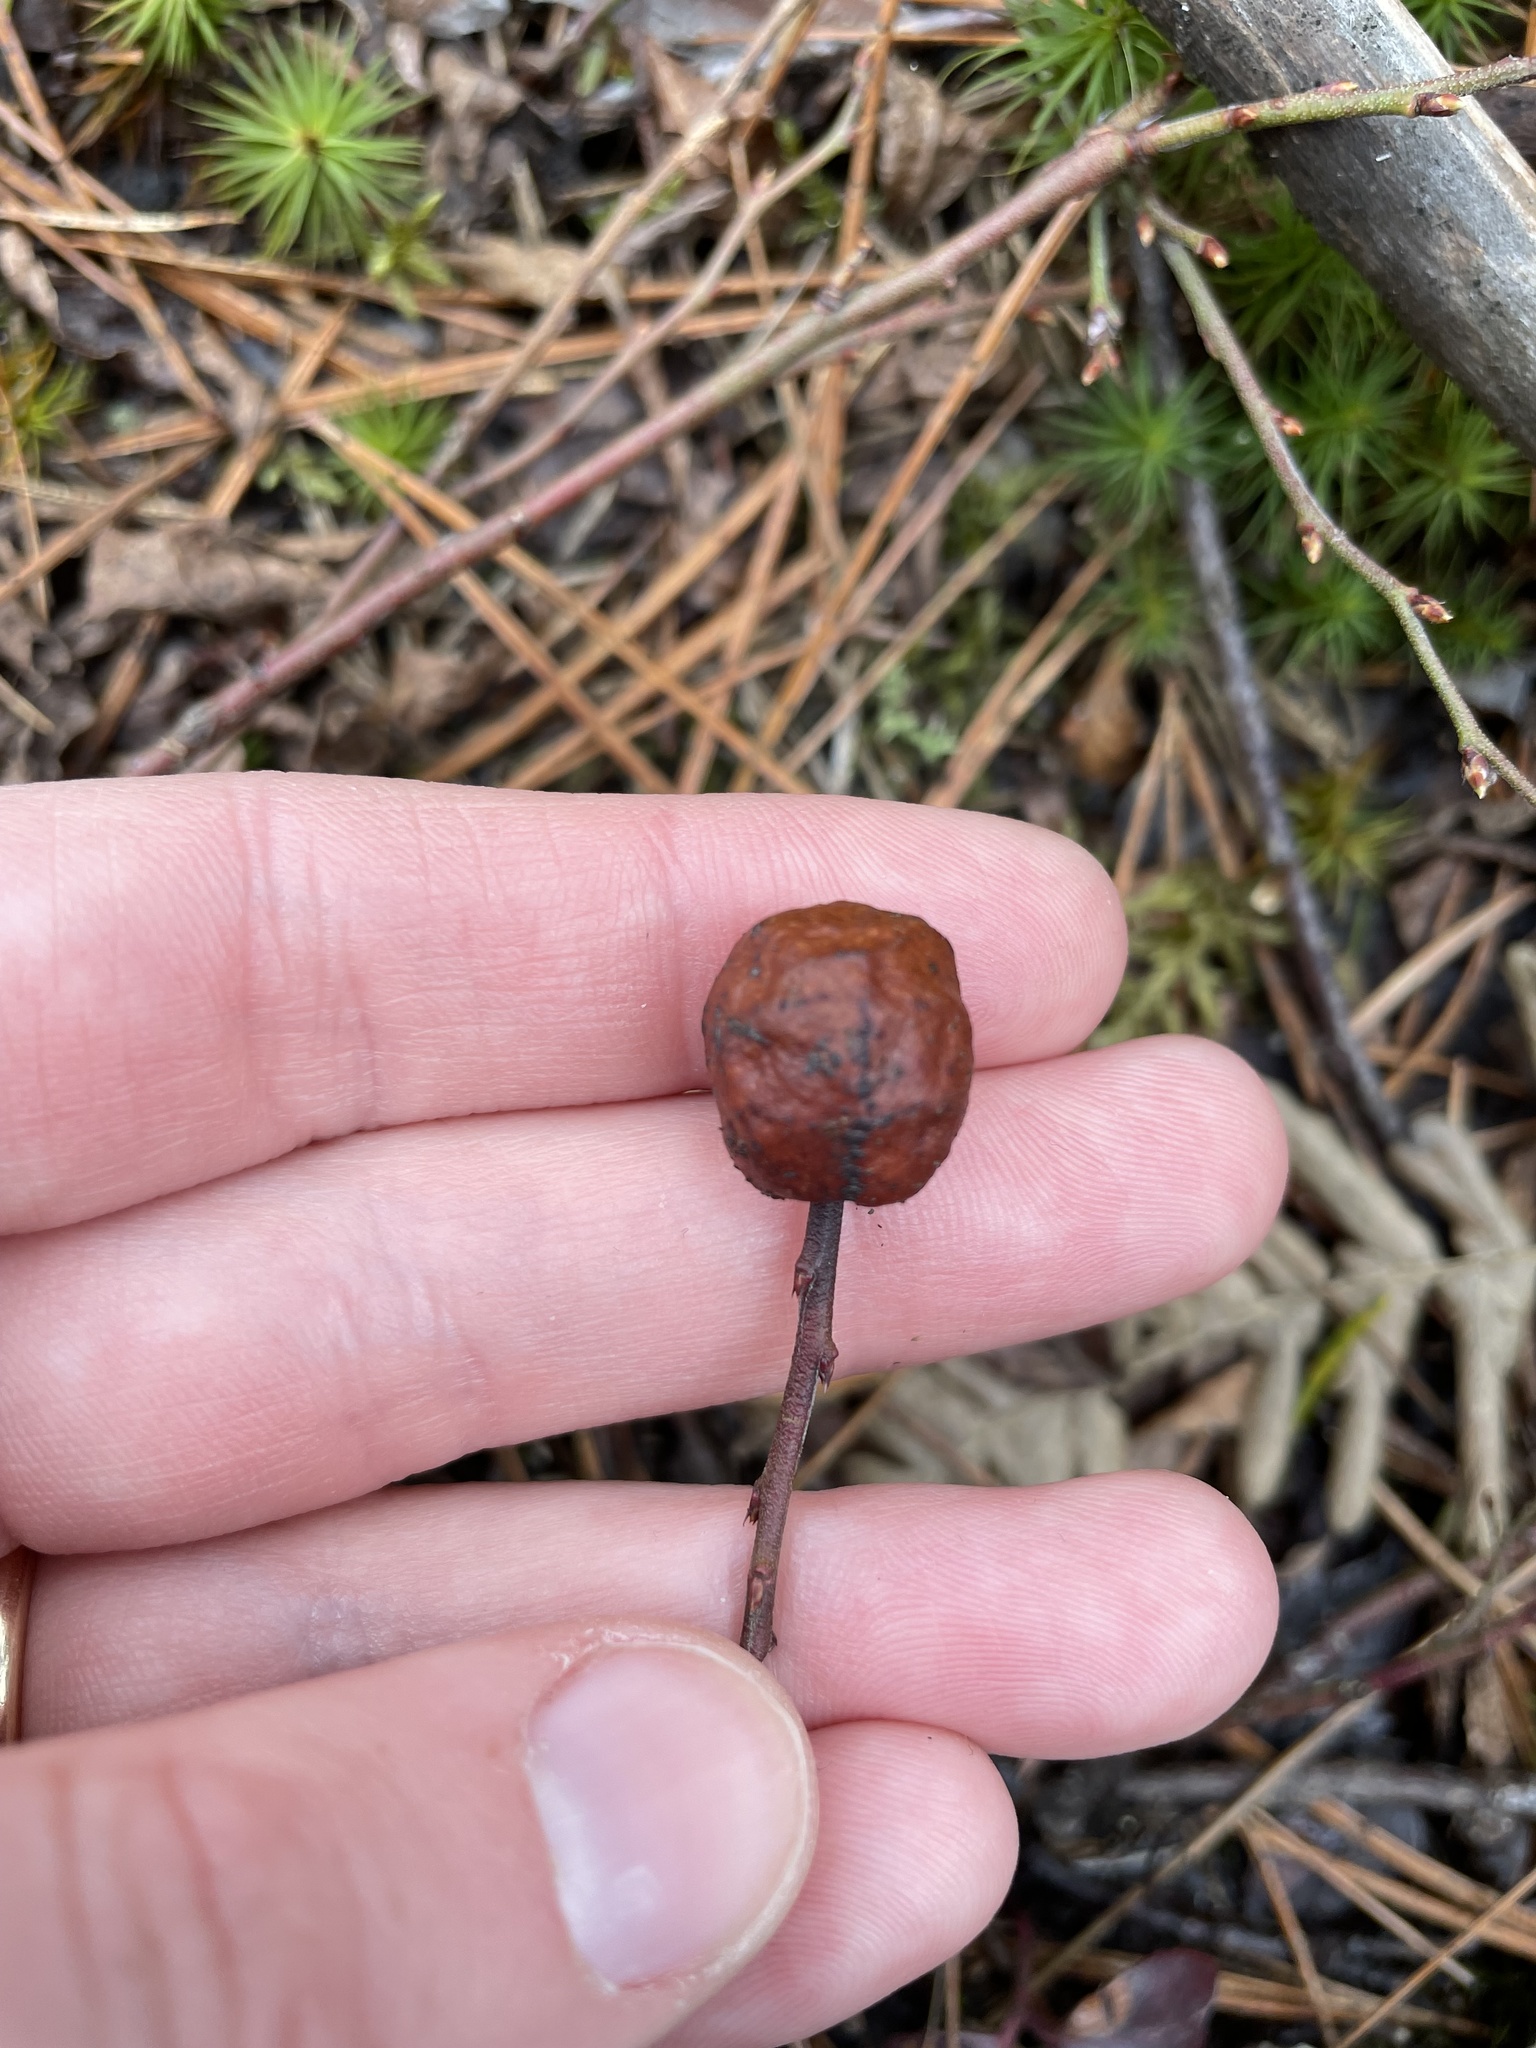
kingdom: Animalia
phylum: Arthropoda
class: Insecta
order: Hymenoptera
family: Pteromalidae
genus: Hemadas
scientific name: Hemadas nubilipennis
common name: Blueberry stem gall wasp
